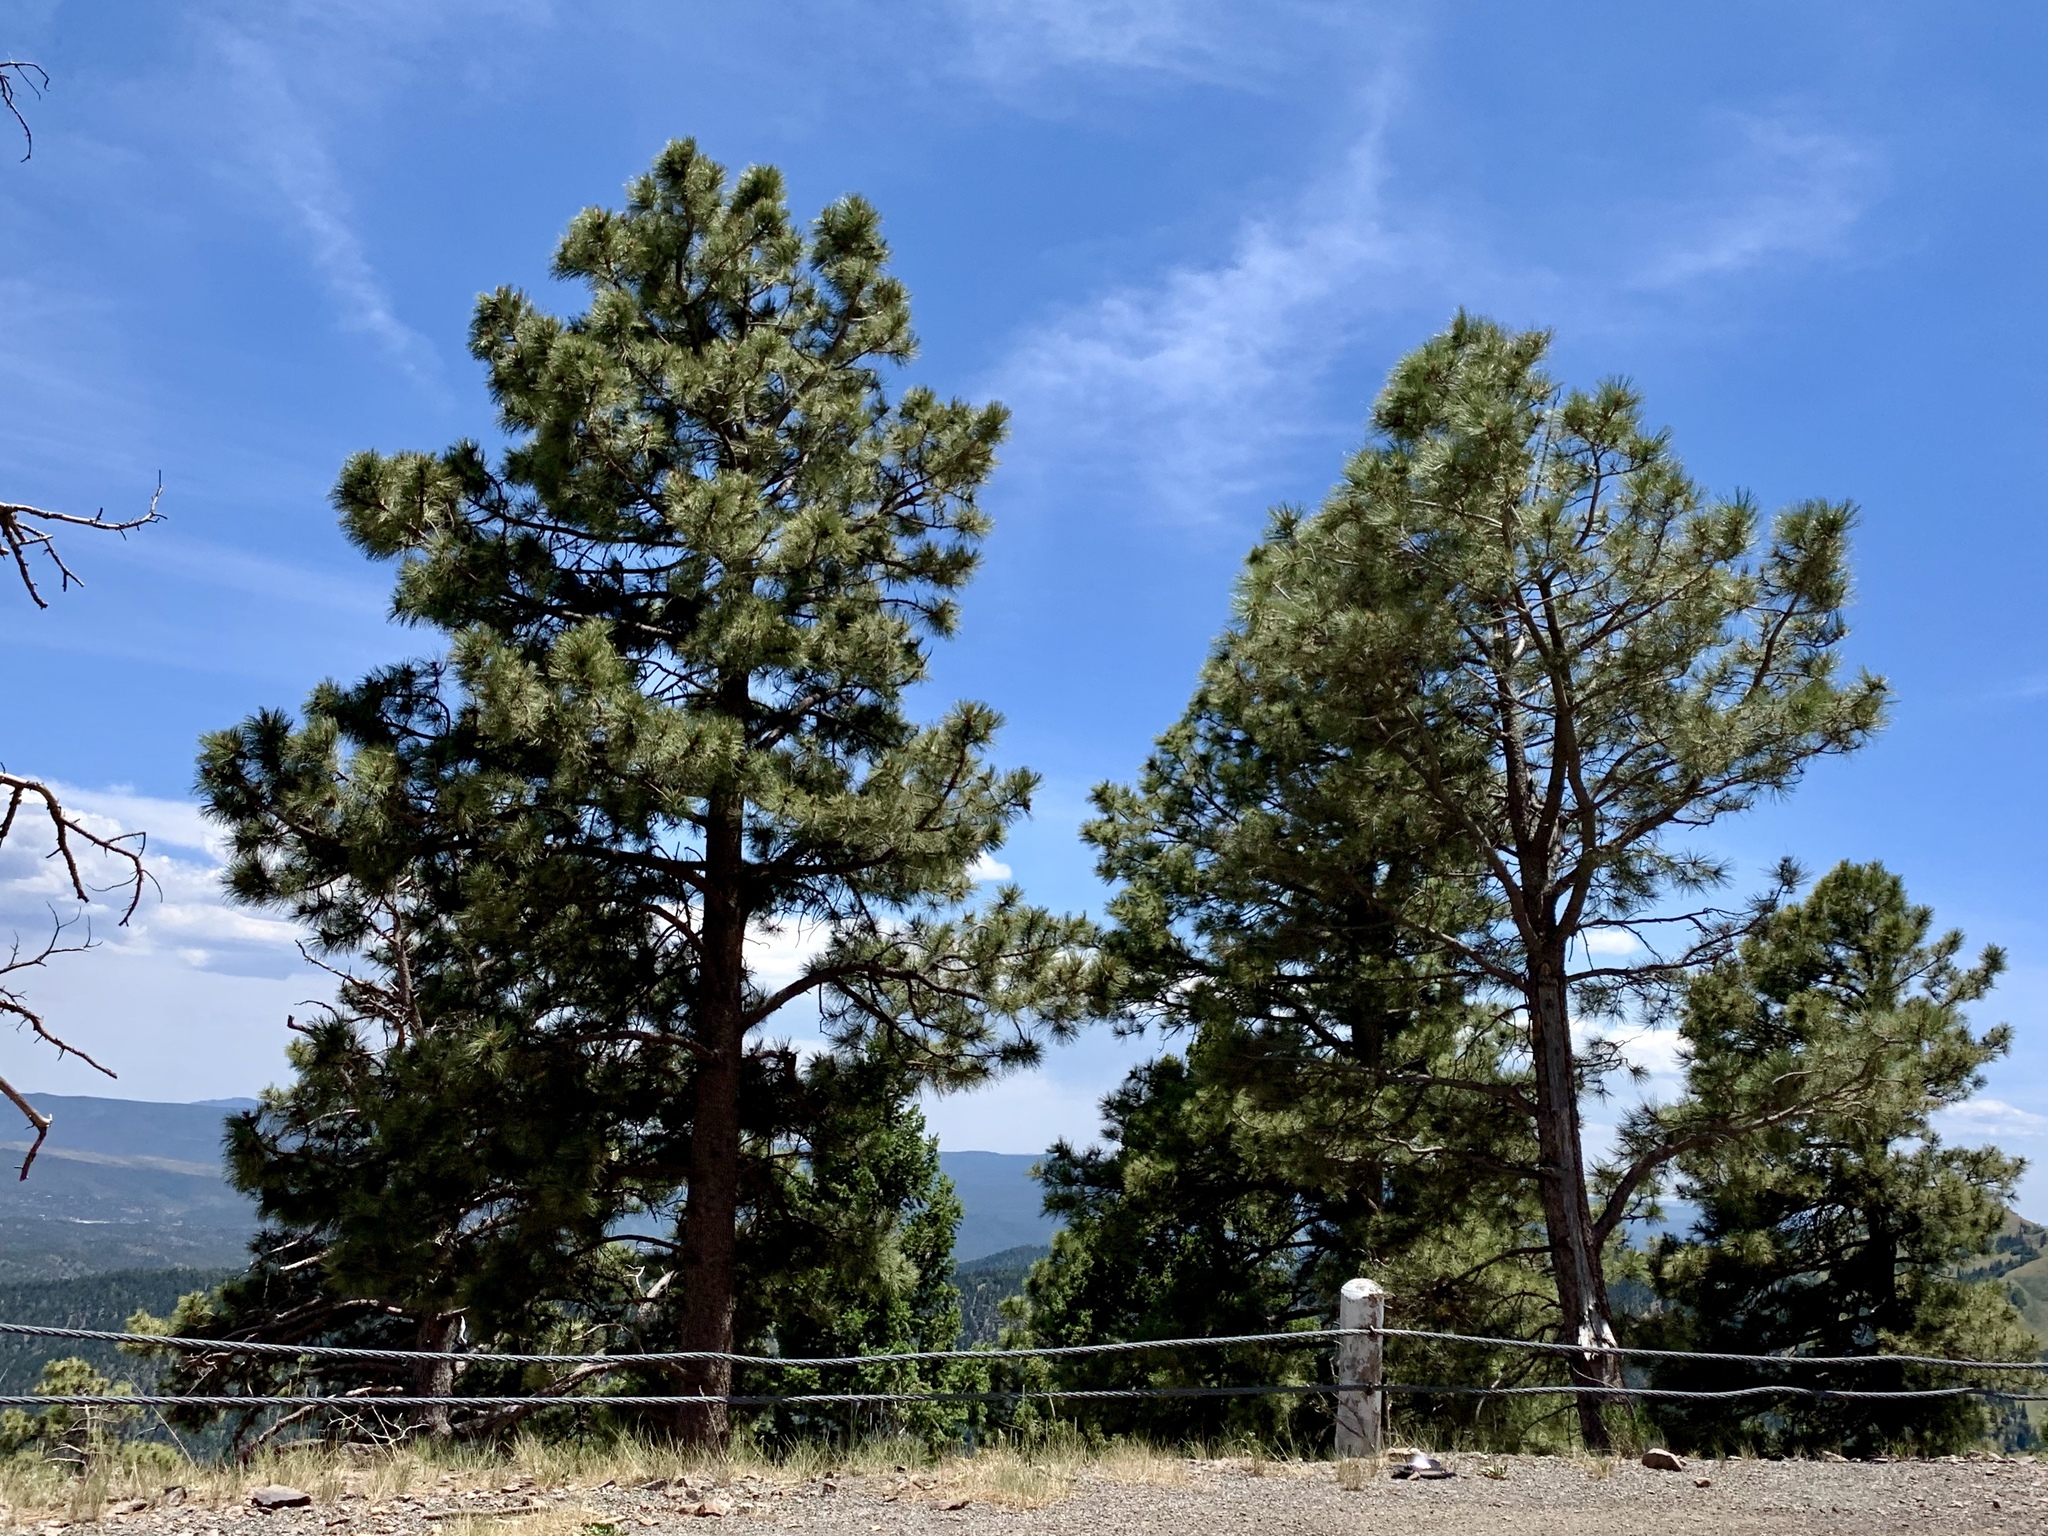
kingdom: Plantae
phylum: Tracheophyta
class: Pinopsida
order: Pinales
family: Pinaceae
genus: Pinus
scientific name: Pinus ponderosa
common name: Western yellow-pine
